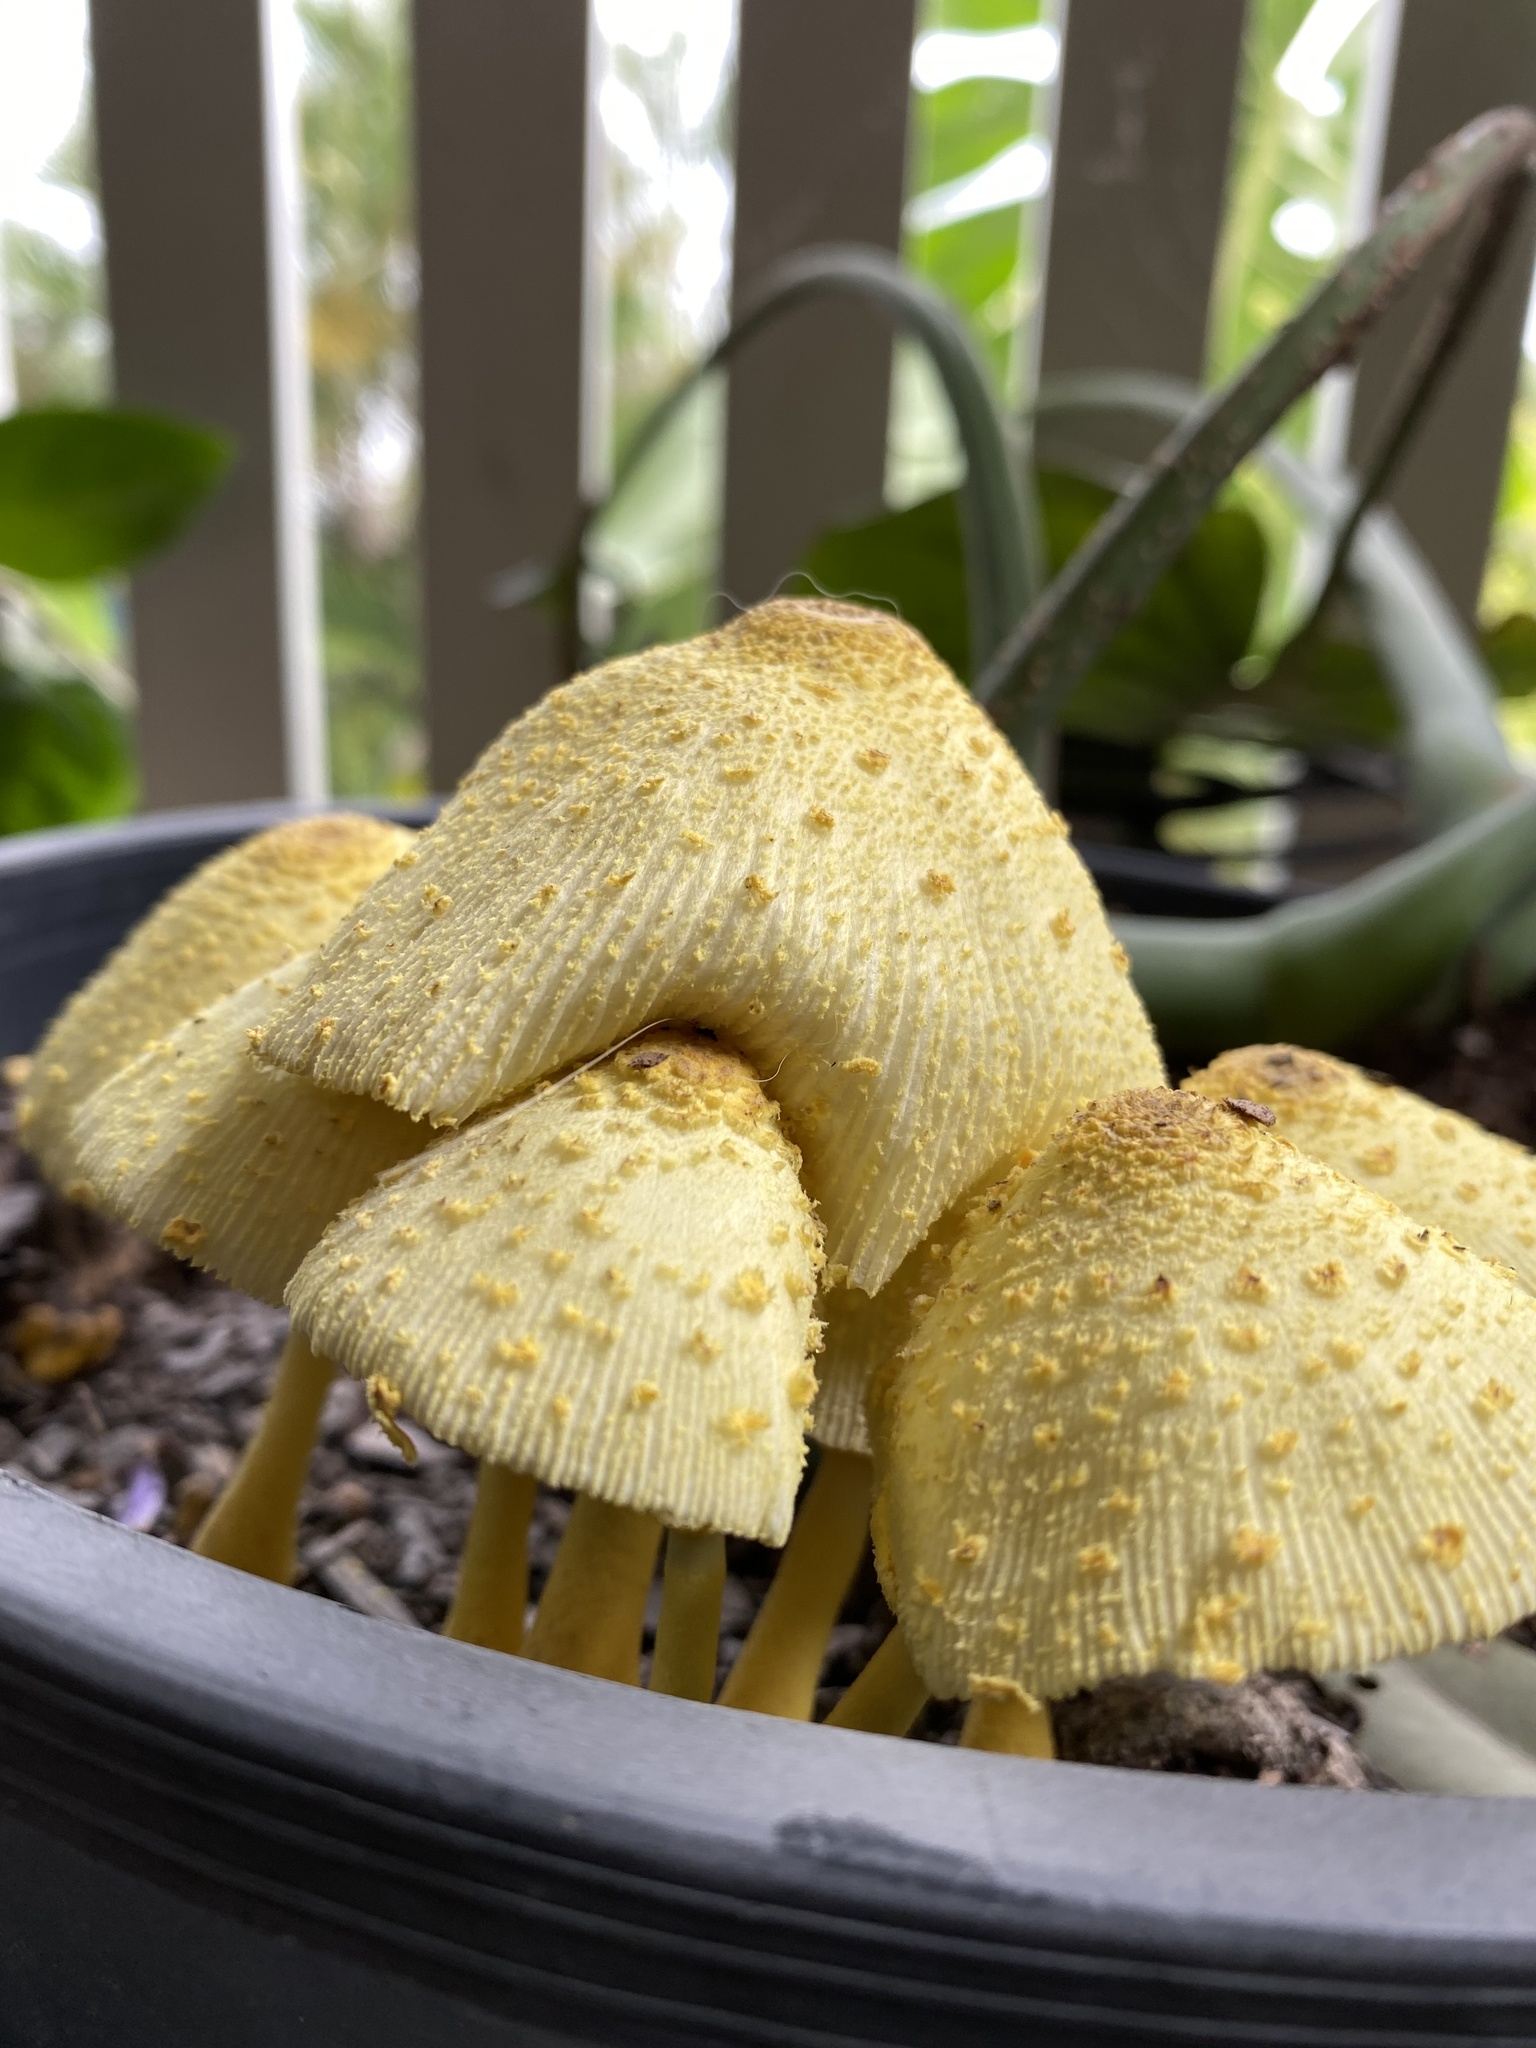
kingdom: Fungi
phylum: Basidiomycota
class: Agaricomycetes
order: Agaricales
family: Agaricaceae
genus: Leucocoprinus
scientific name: Leucocoprinus birnbaumii
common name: Plantpot dapperling
